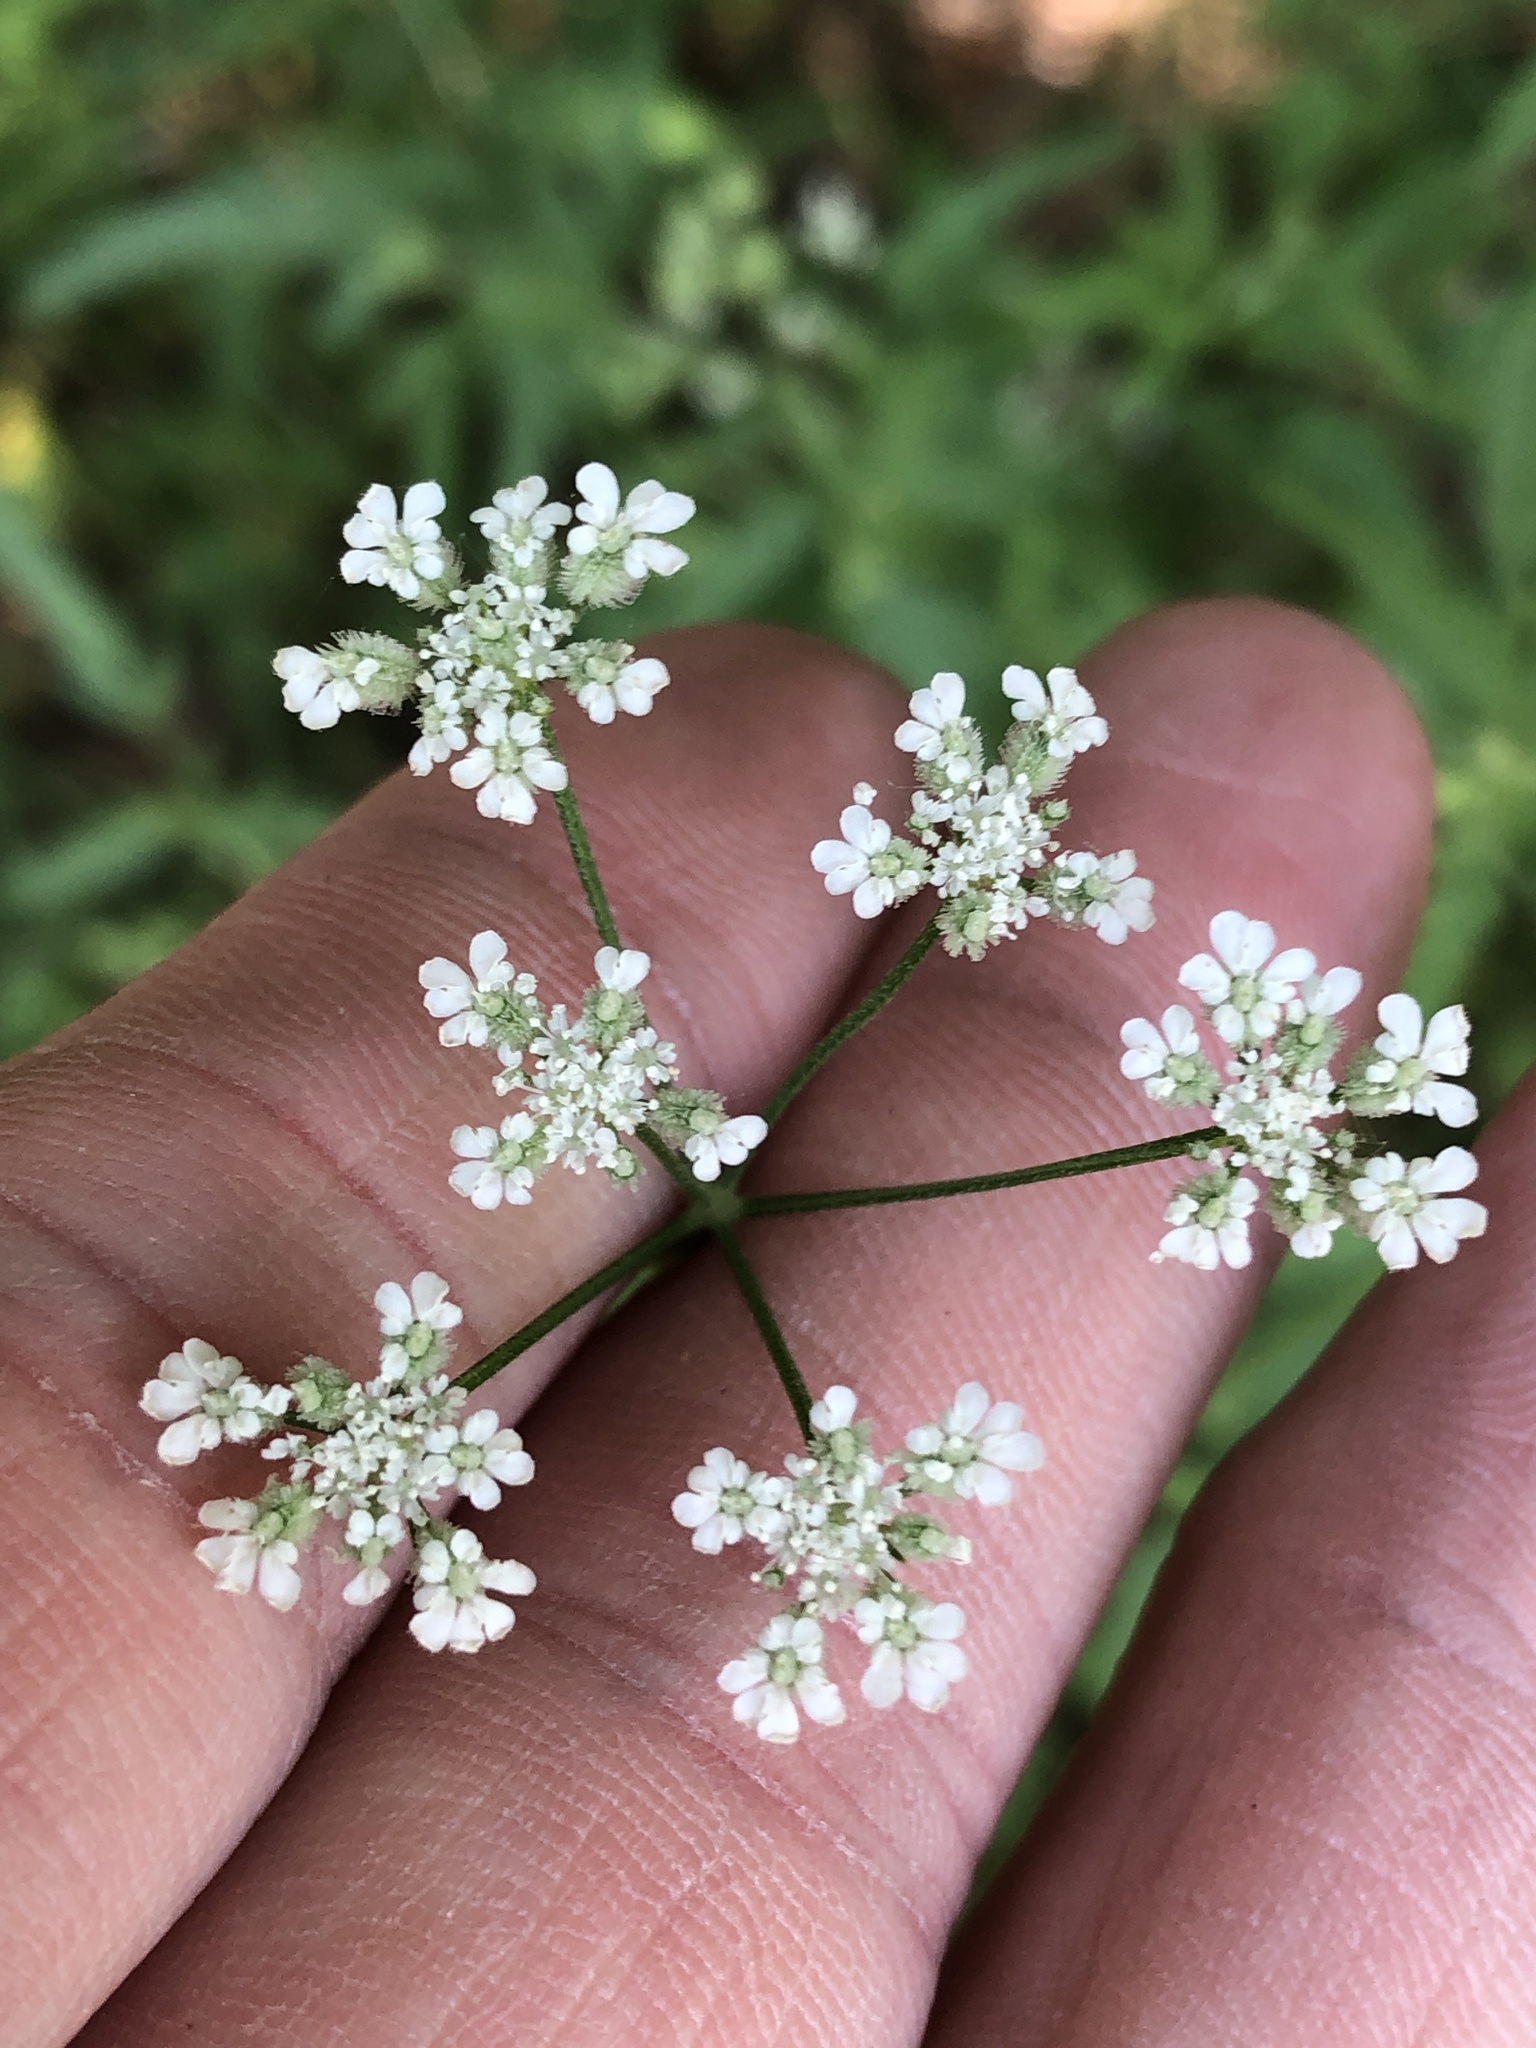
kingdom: Plantae
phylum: Tracheophyta
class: Magnoliopsida
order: Apiales
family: Apiaceae
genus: Torilis
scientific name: Torilis arvensis
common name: Spreading hedge-parsley
